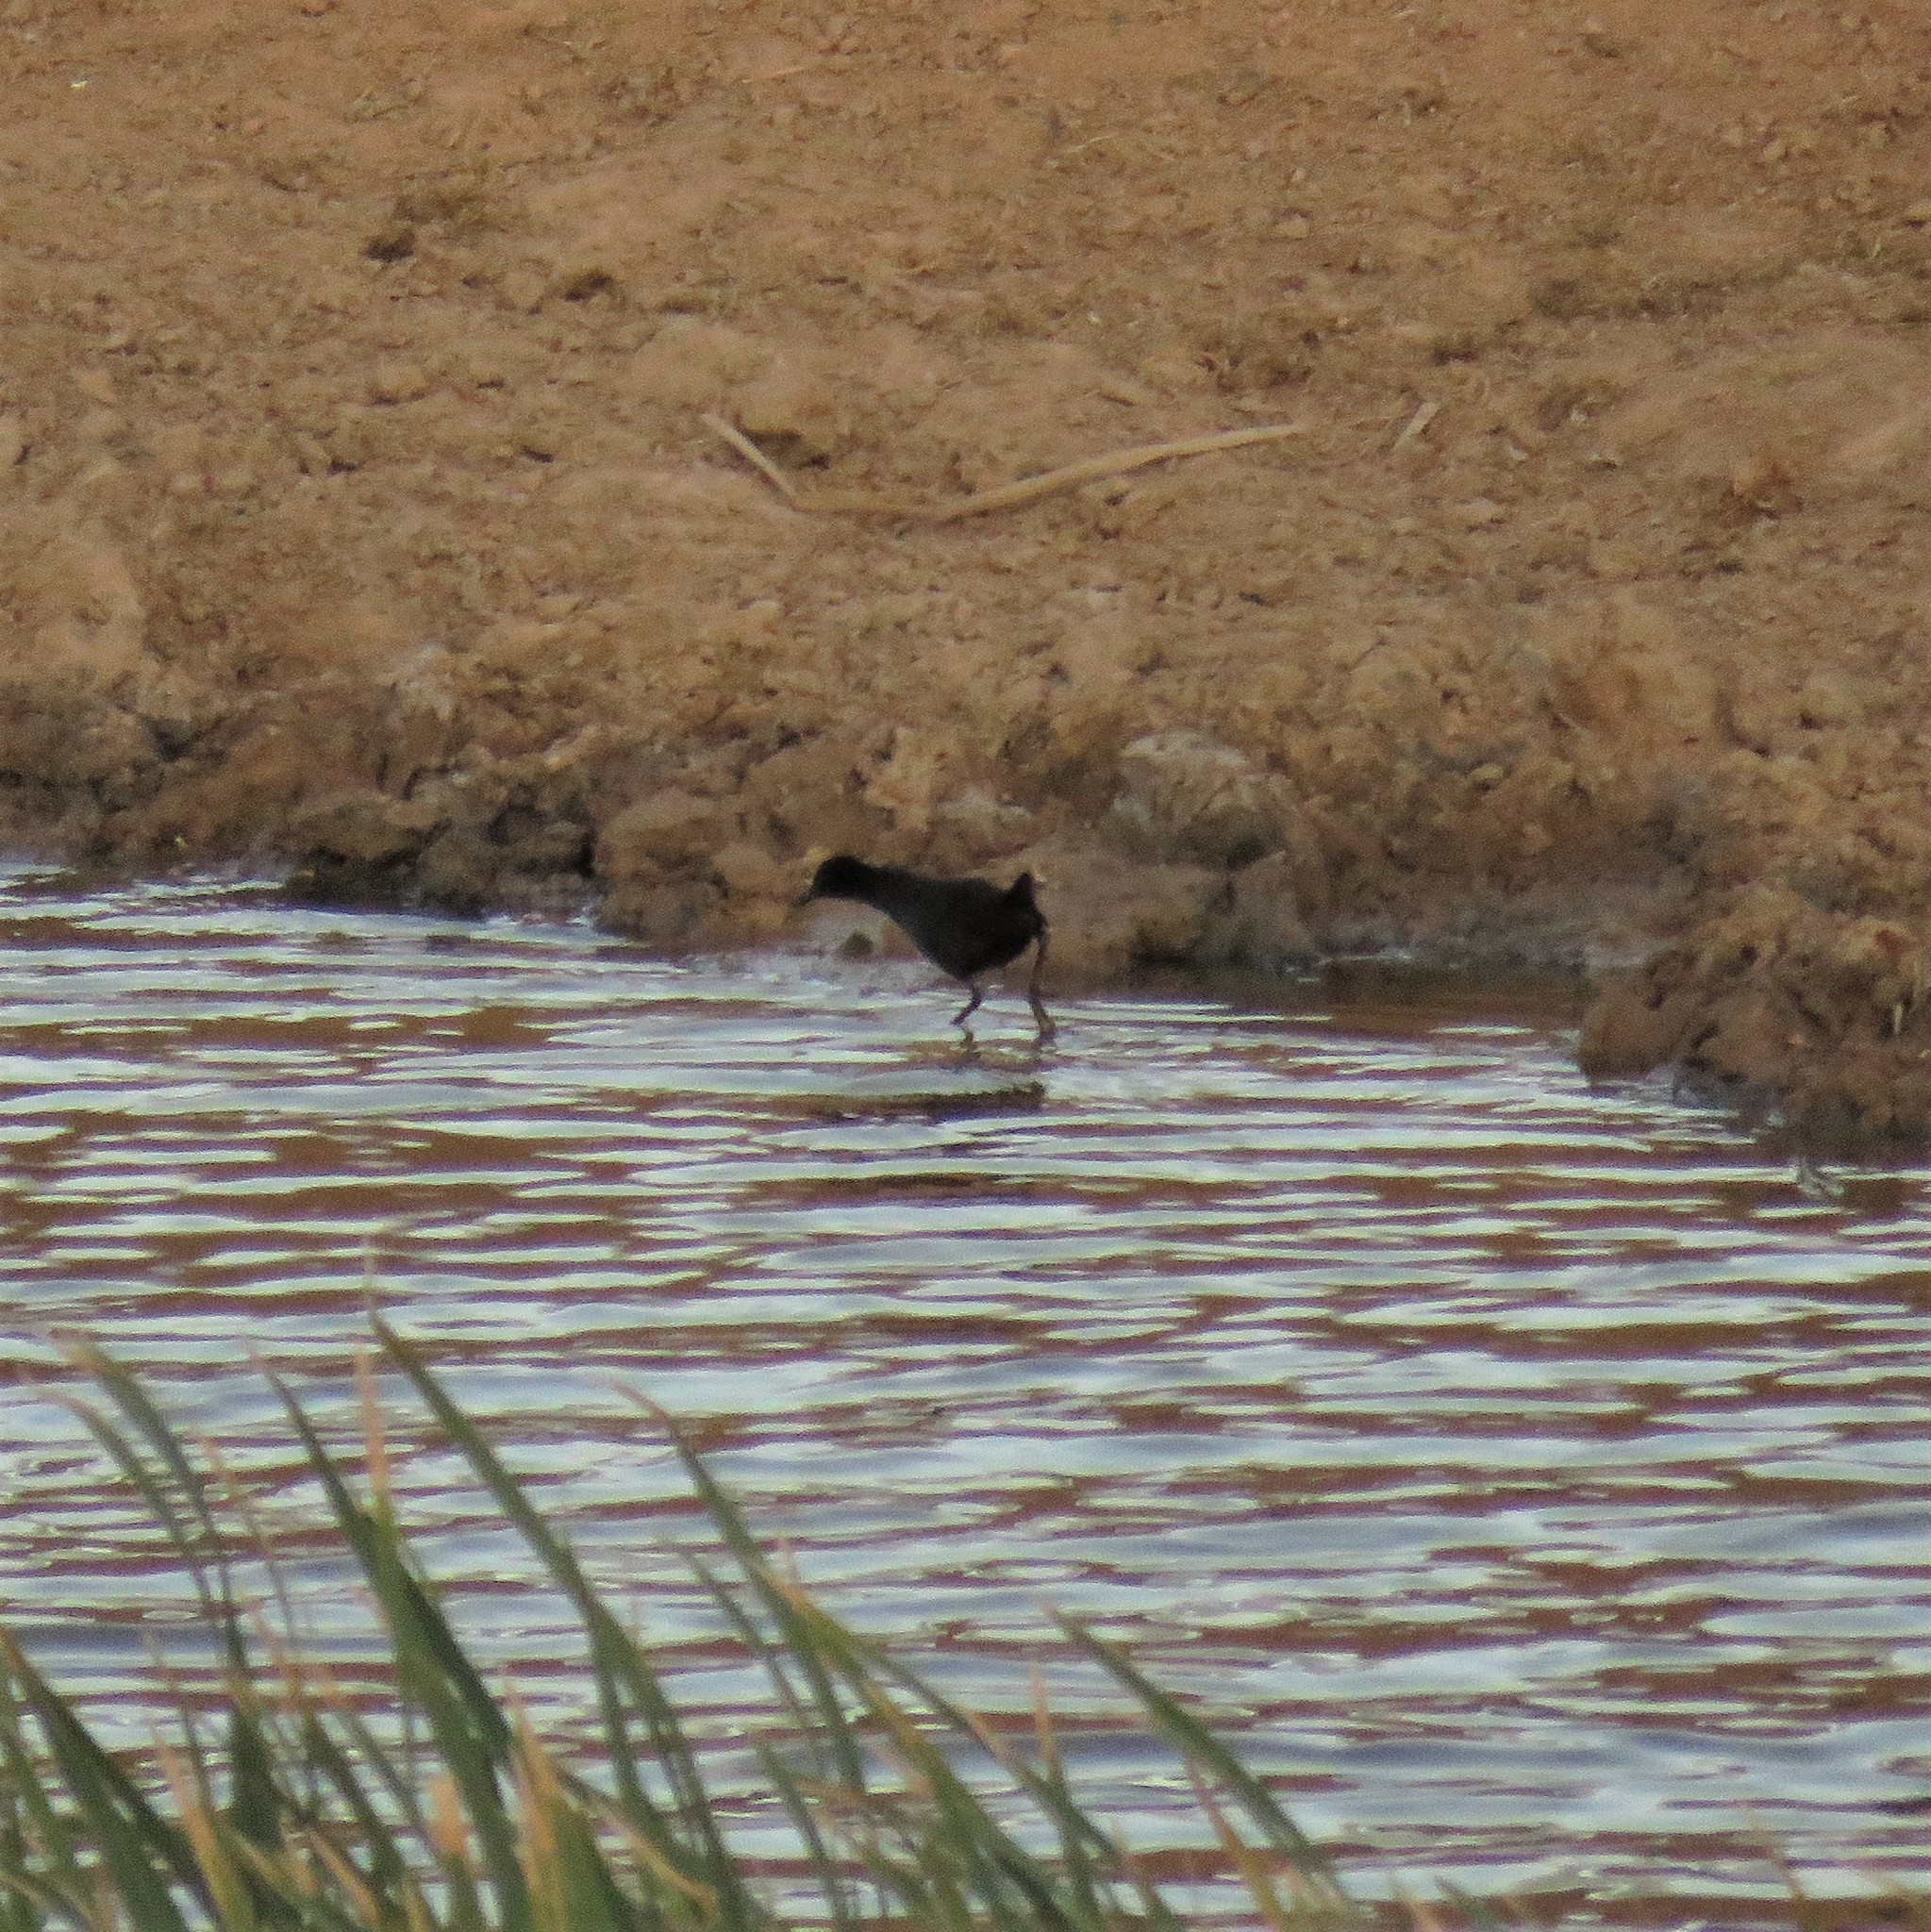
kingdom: Animalia
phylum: Chordata
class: Aves
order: Gruiformes
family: Rallidae
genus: Amaurornis
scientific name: Amaurornis flavirostra
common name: Black crake
